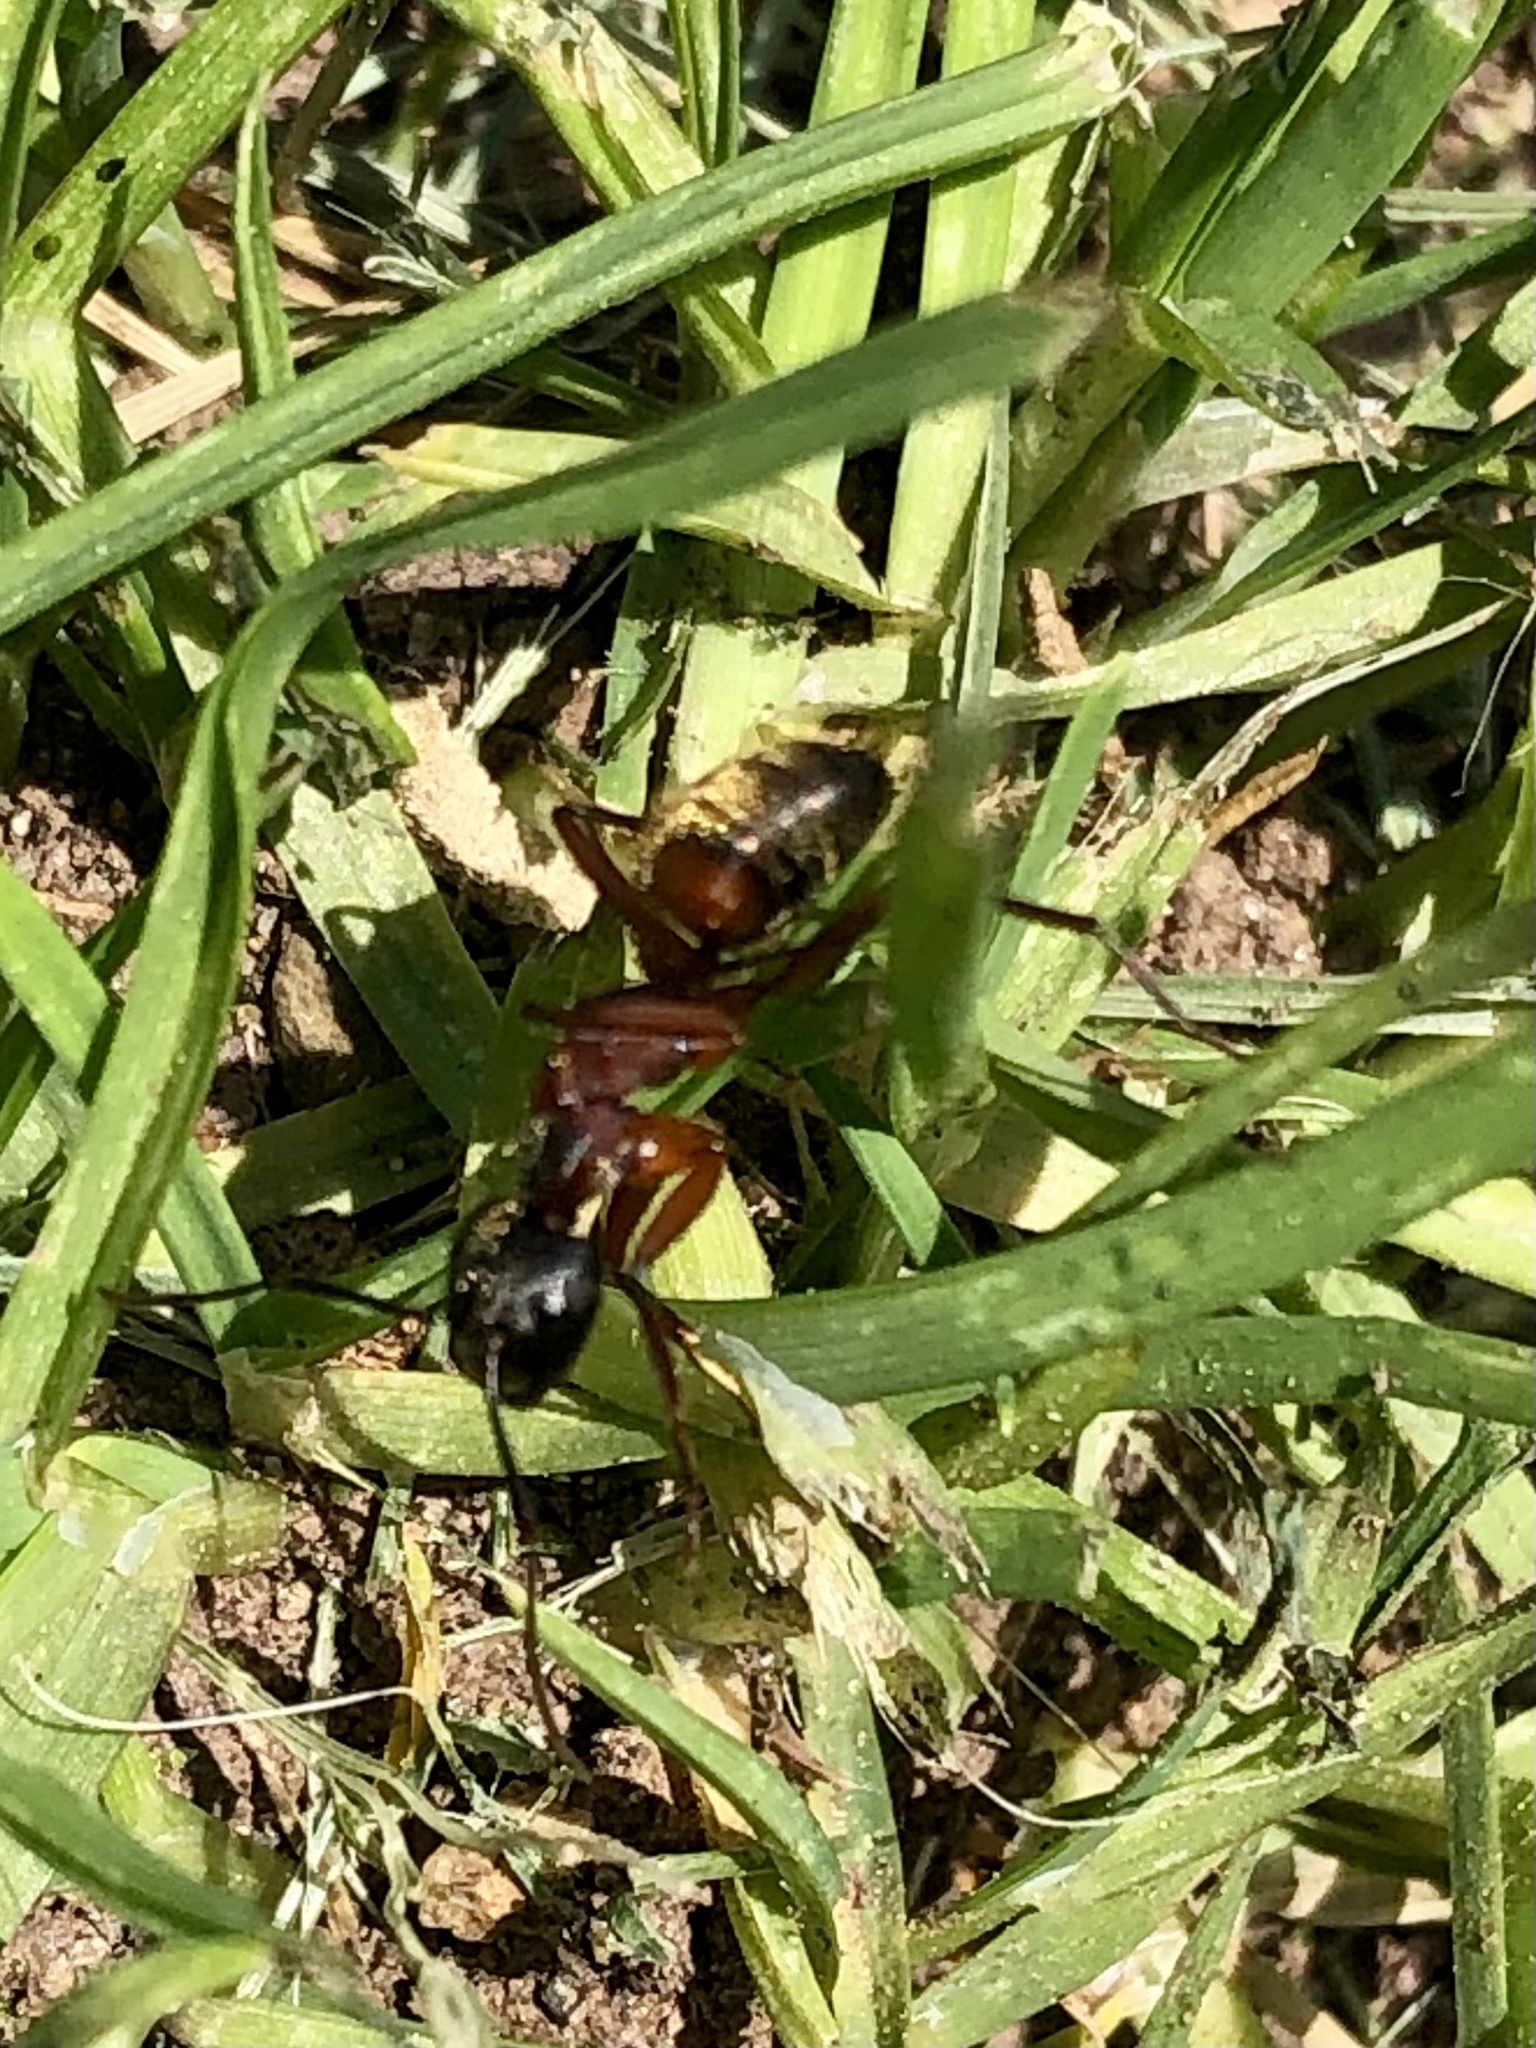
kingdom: Animalia
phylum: Arthropoda
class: Insecta
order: Hymenoptera
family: Formicidae
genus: Camponotus
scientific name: Camponotus chromaiodes
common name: Red carpenter ant
